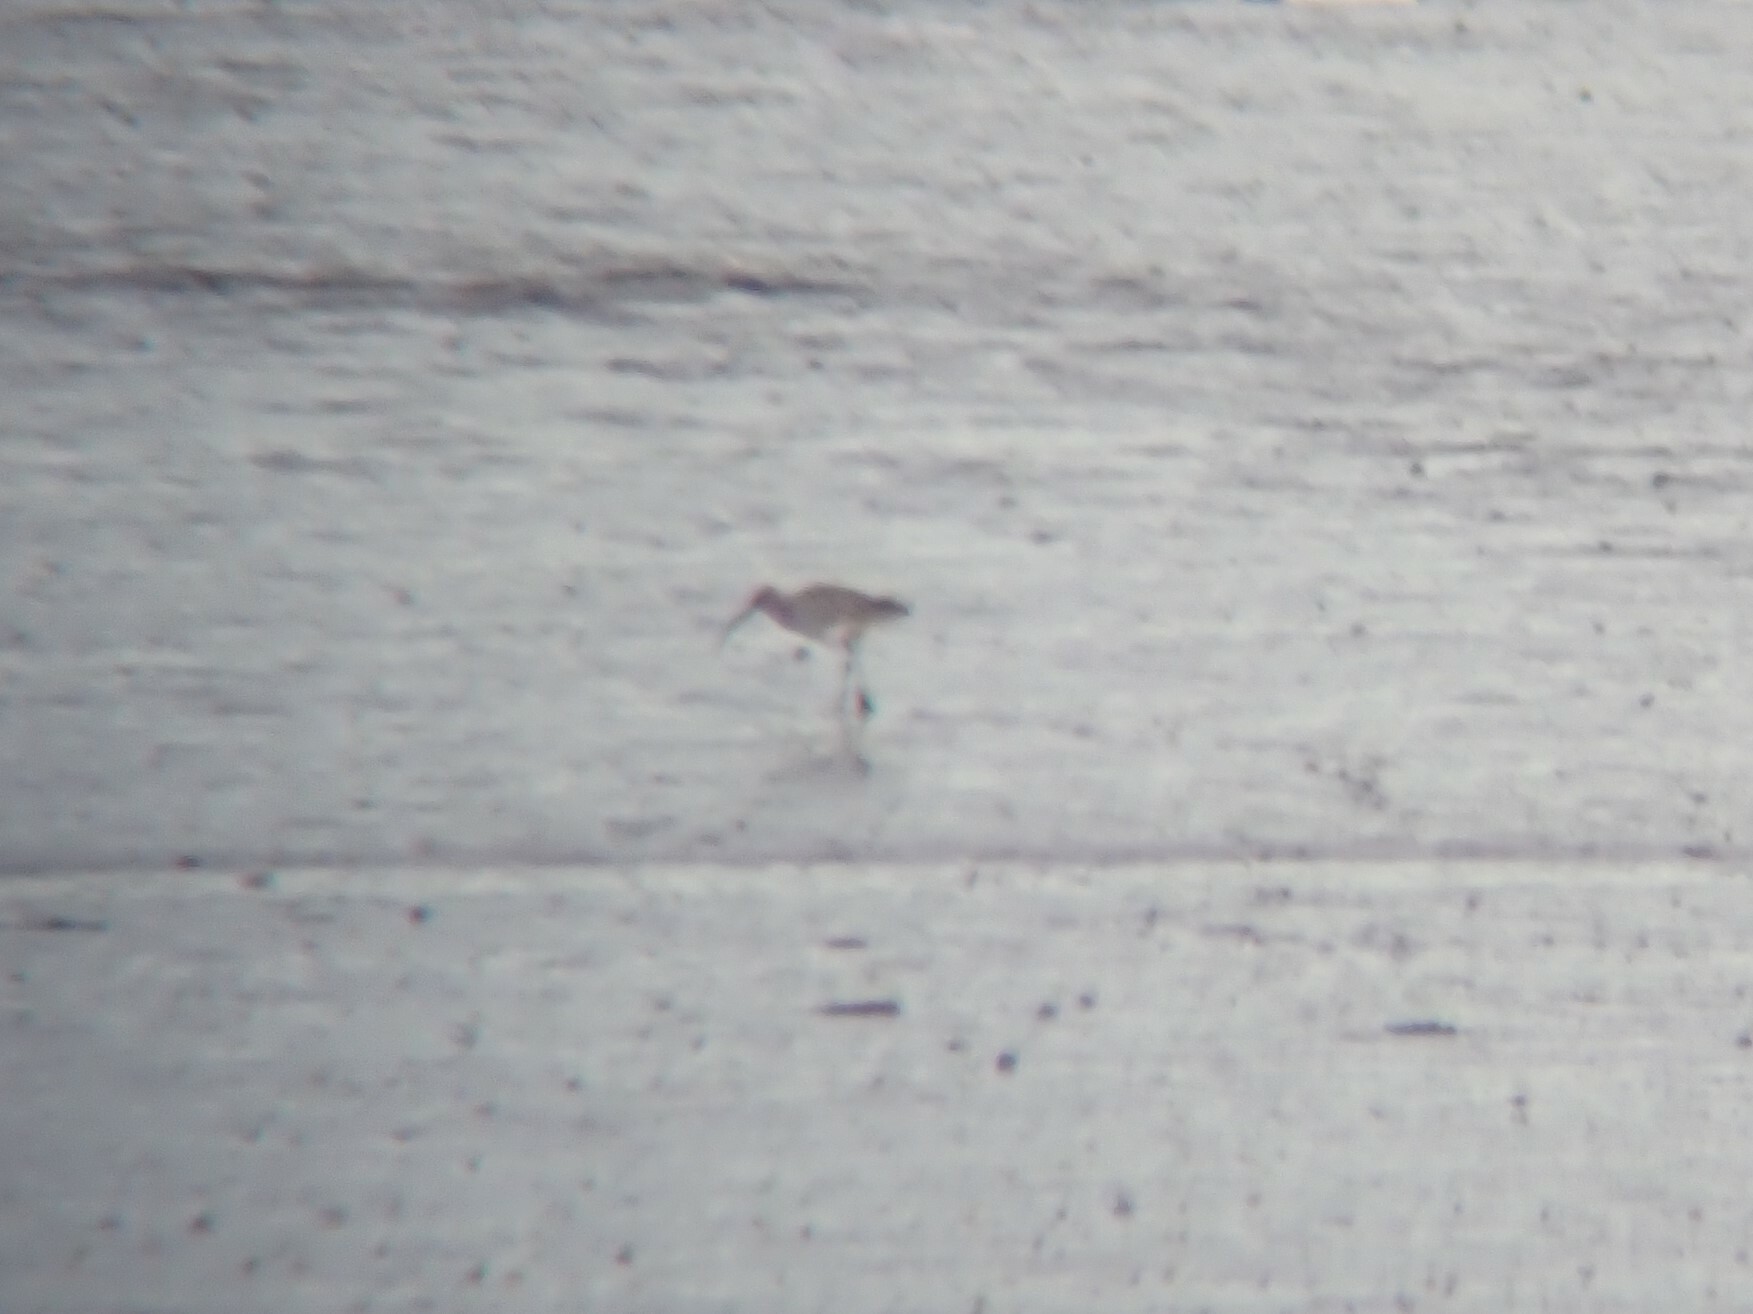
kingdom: Animalia
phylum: Chordata
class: Aves
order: Charadriiformes
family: Scolopacidae
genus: Numenius
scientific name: Numenius arquata
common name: Eurasian curlew
